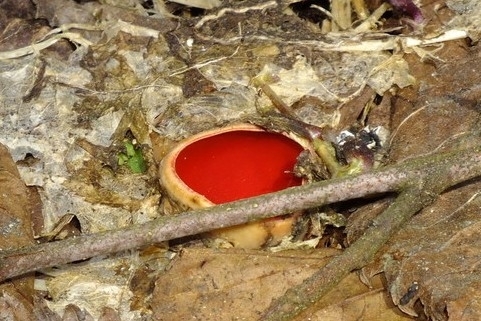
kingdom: Fungi
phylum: Ascomycota
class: Pezizomycetes
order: Pezizales
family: Sarcoscyphaceae
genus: Sarcoscypha
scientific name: Sarcoscypha
